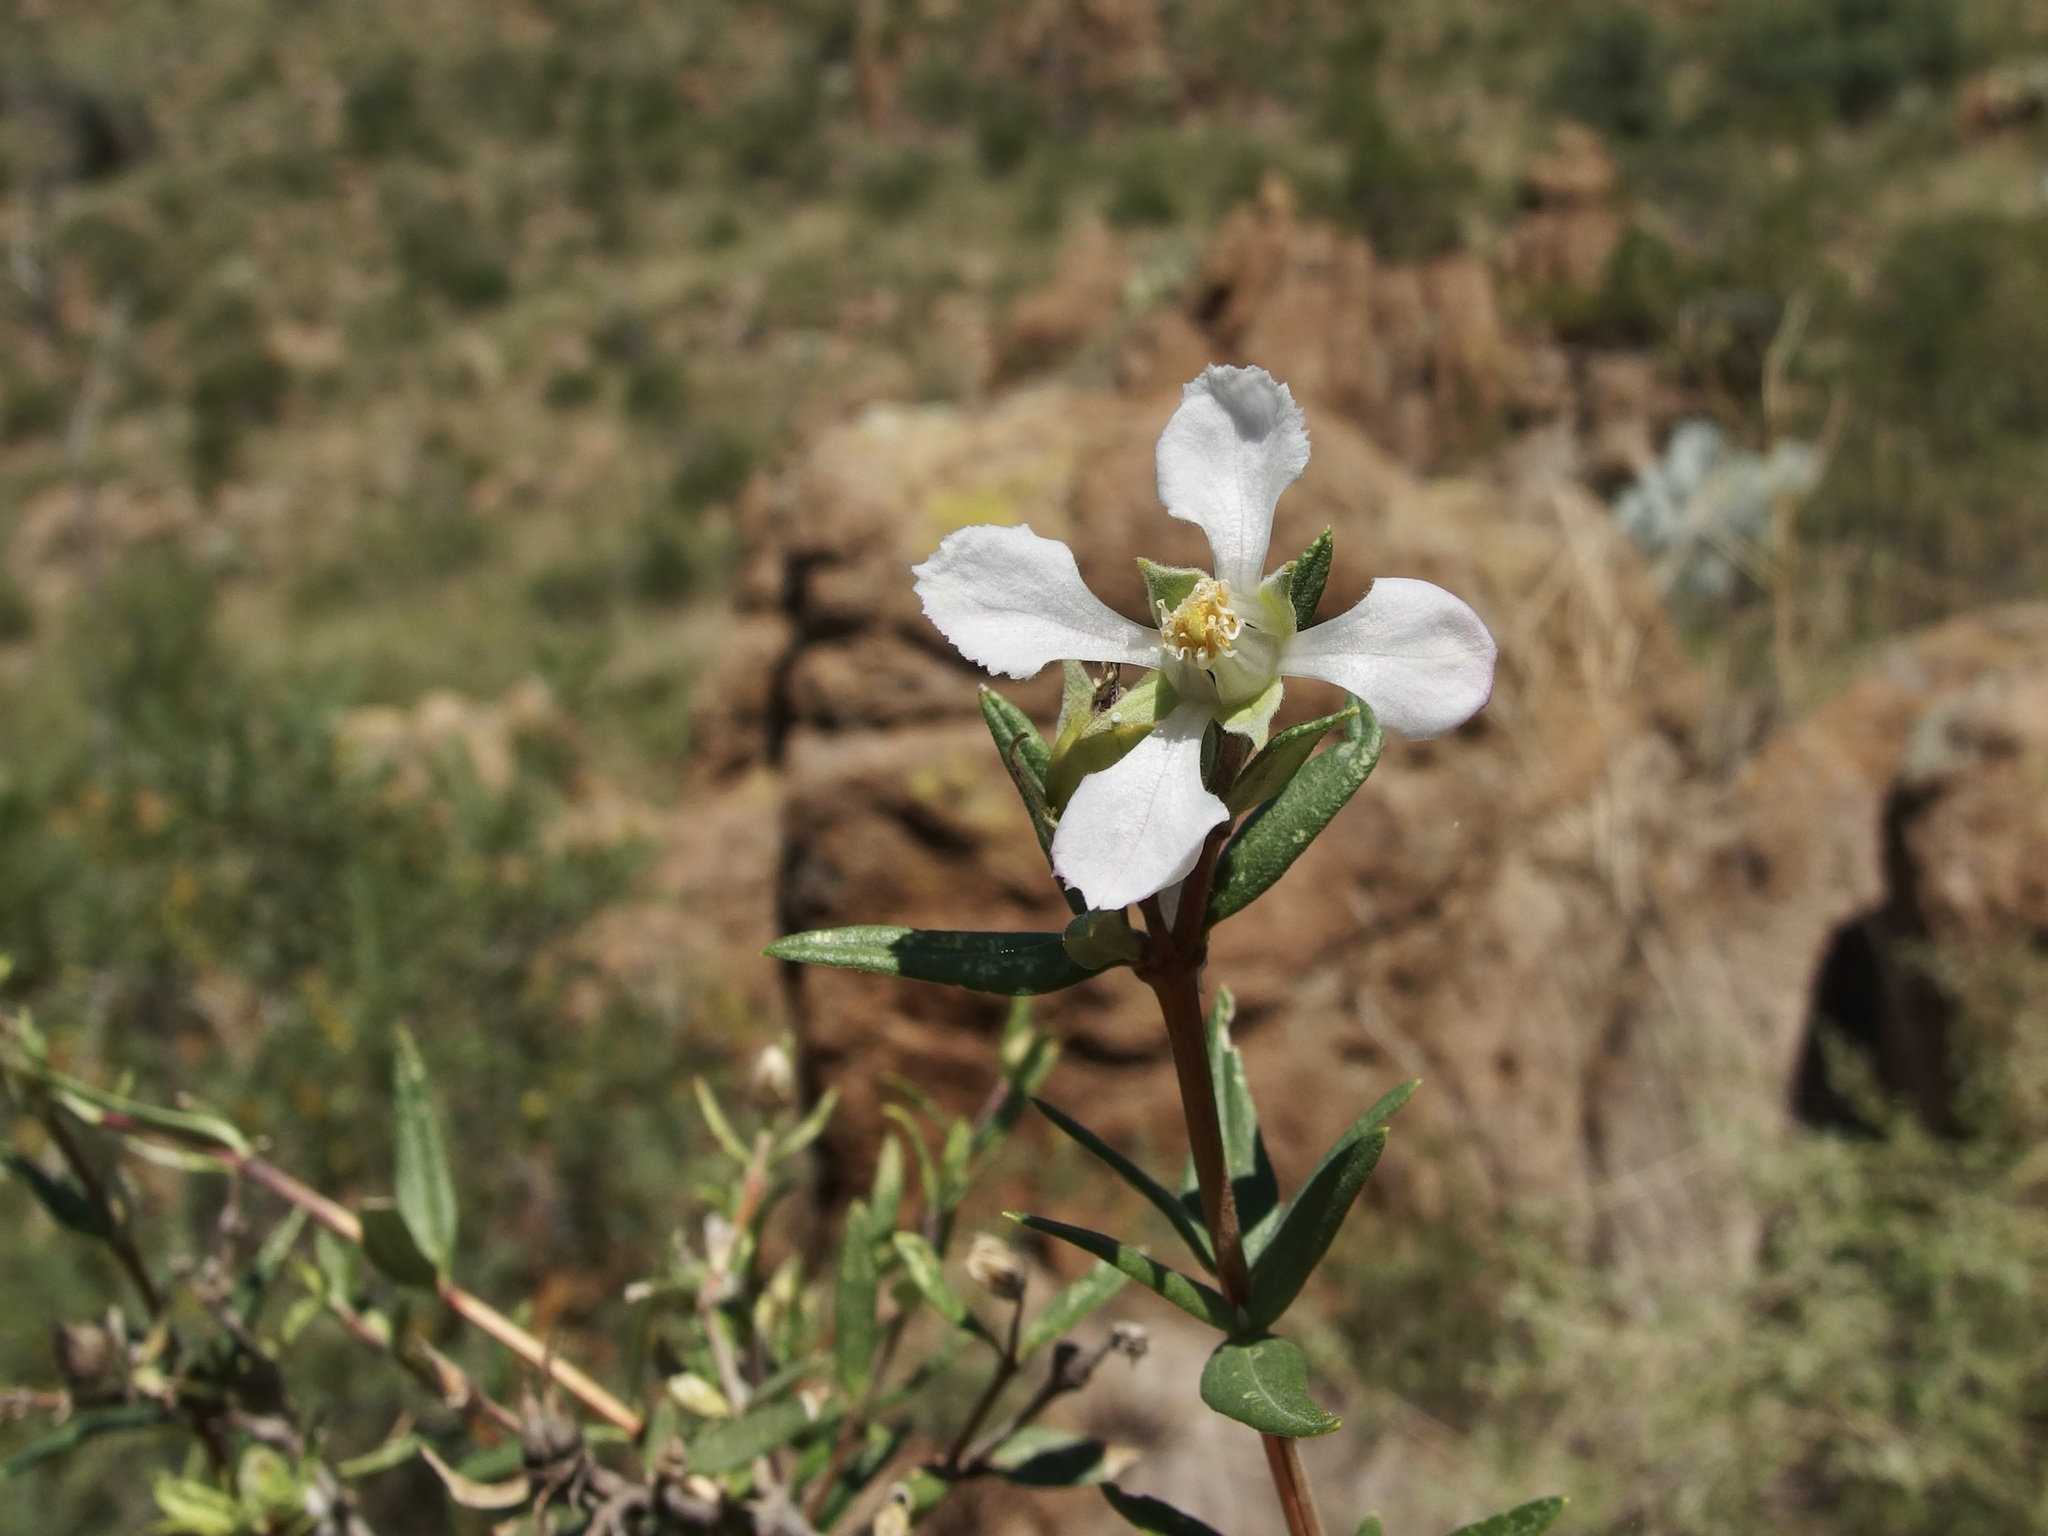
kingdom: Plantae
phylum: Tracheophyta
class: Magnoliopsida
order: Cornales
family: Hydrangeaceae
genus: Fendlera
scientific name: Fendlera rupicola
